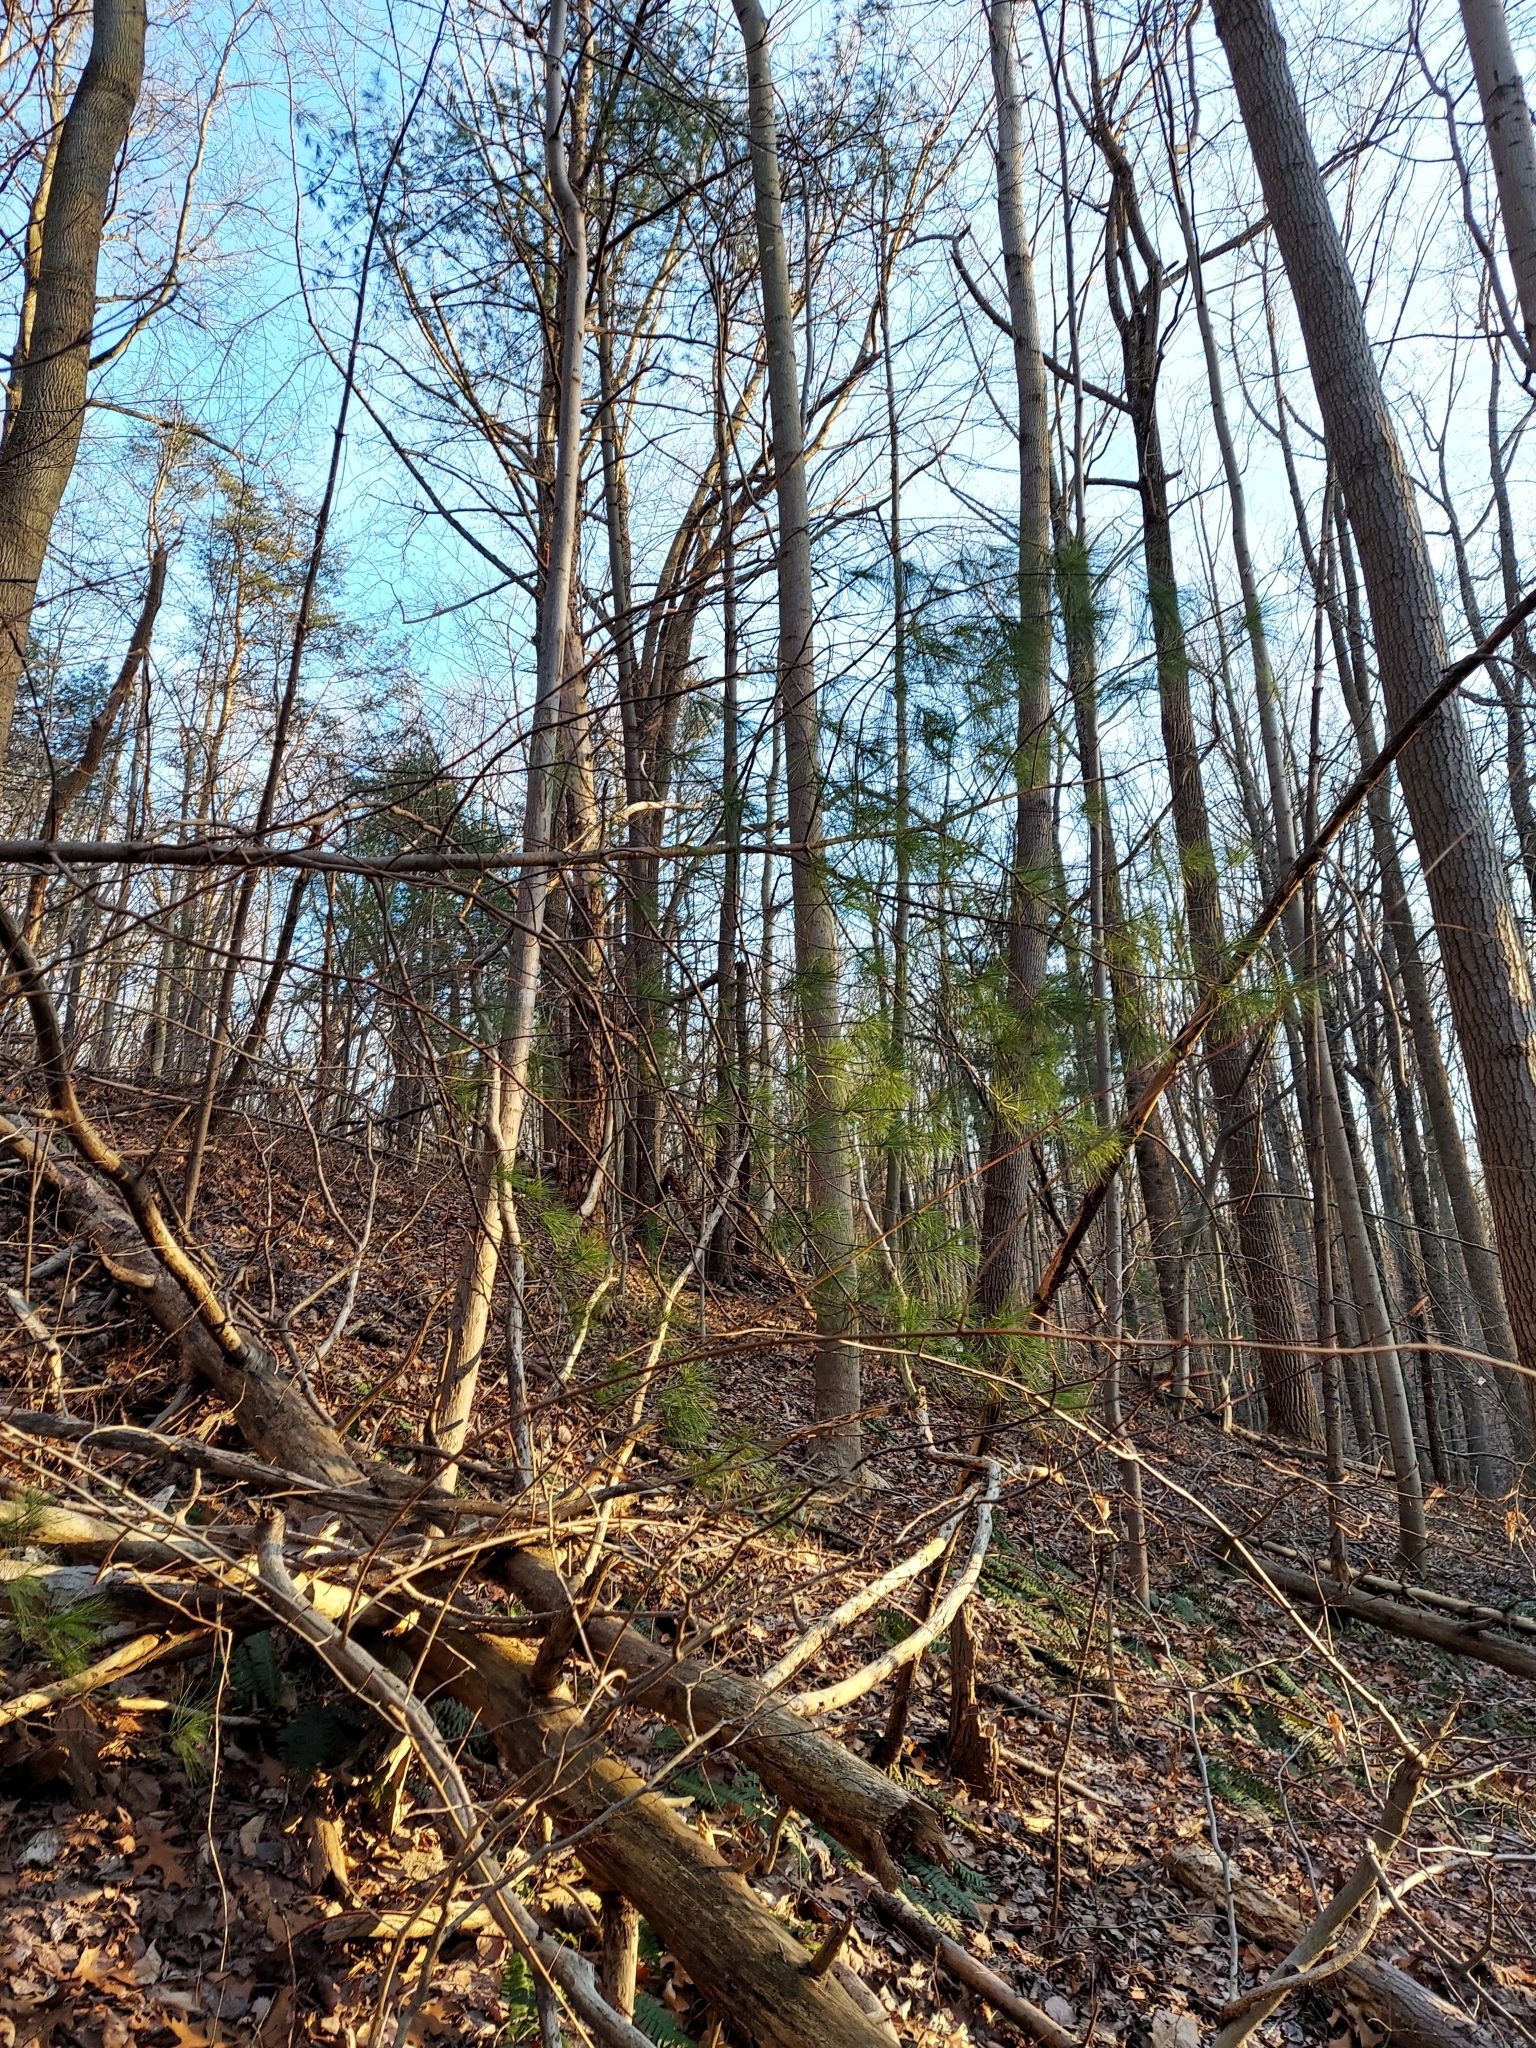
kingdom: Plantae
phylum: Tracheophyta
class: Pinopsida
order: Pinales
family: Pinaceae
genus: Pinus
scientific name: Pinus strobus
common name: Weymouth pine
